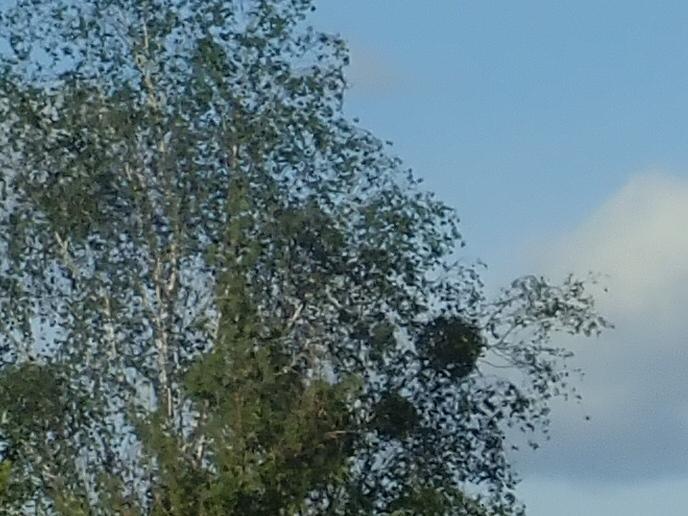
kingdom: Plantae
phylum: Tracheophyta
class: Magnoliopsida
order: Santalales
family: Viscaceae
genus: Viscum
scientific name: Viscum album
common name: Mistletoe
